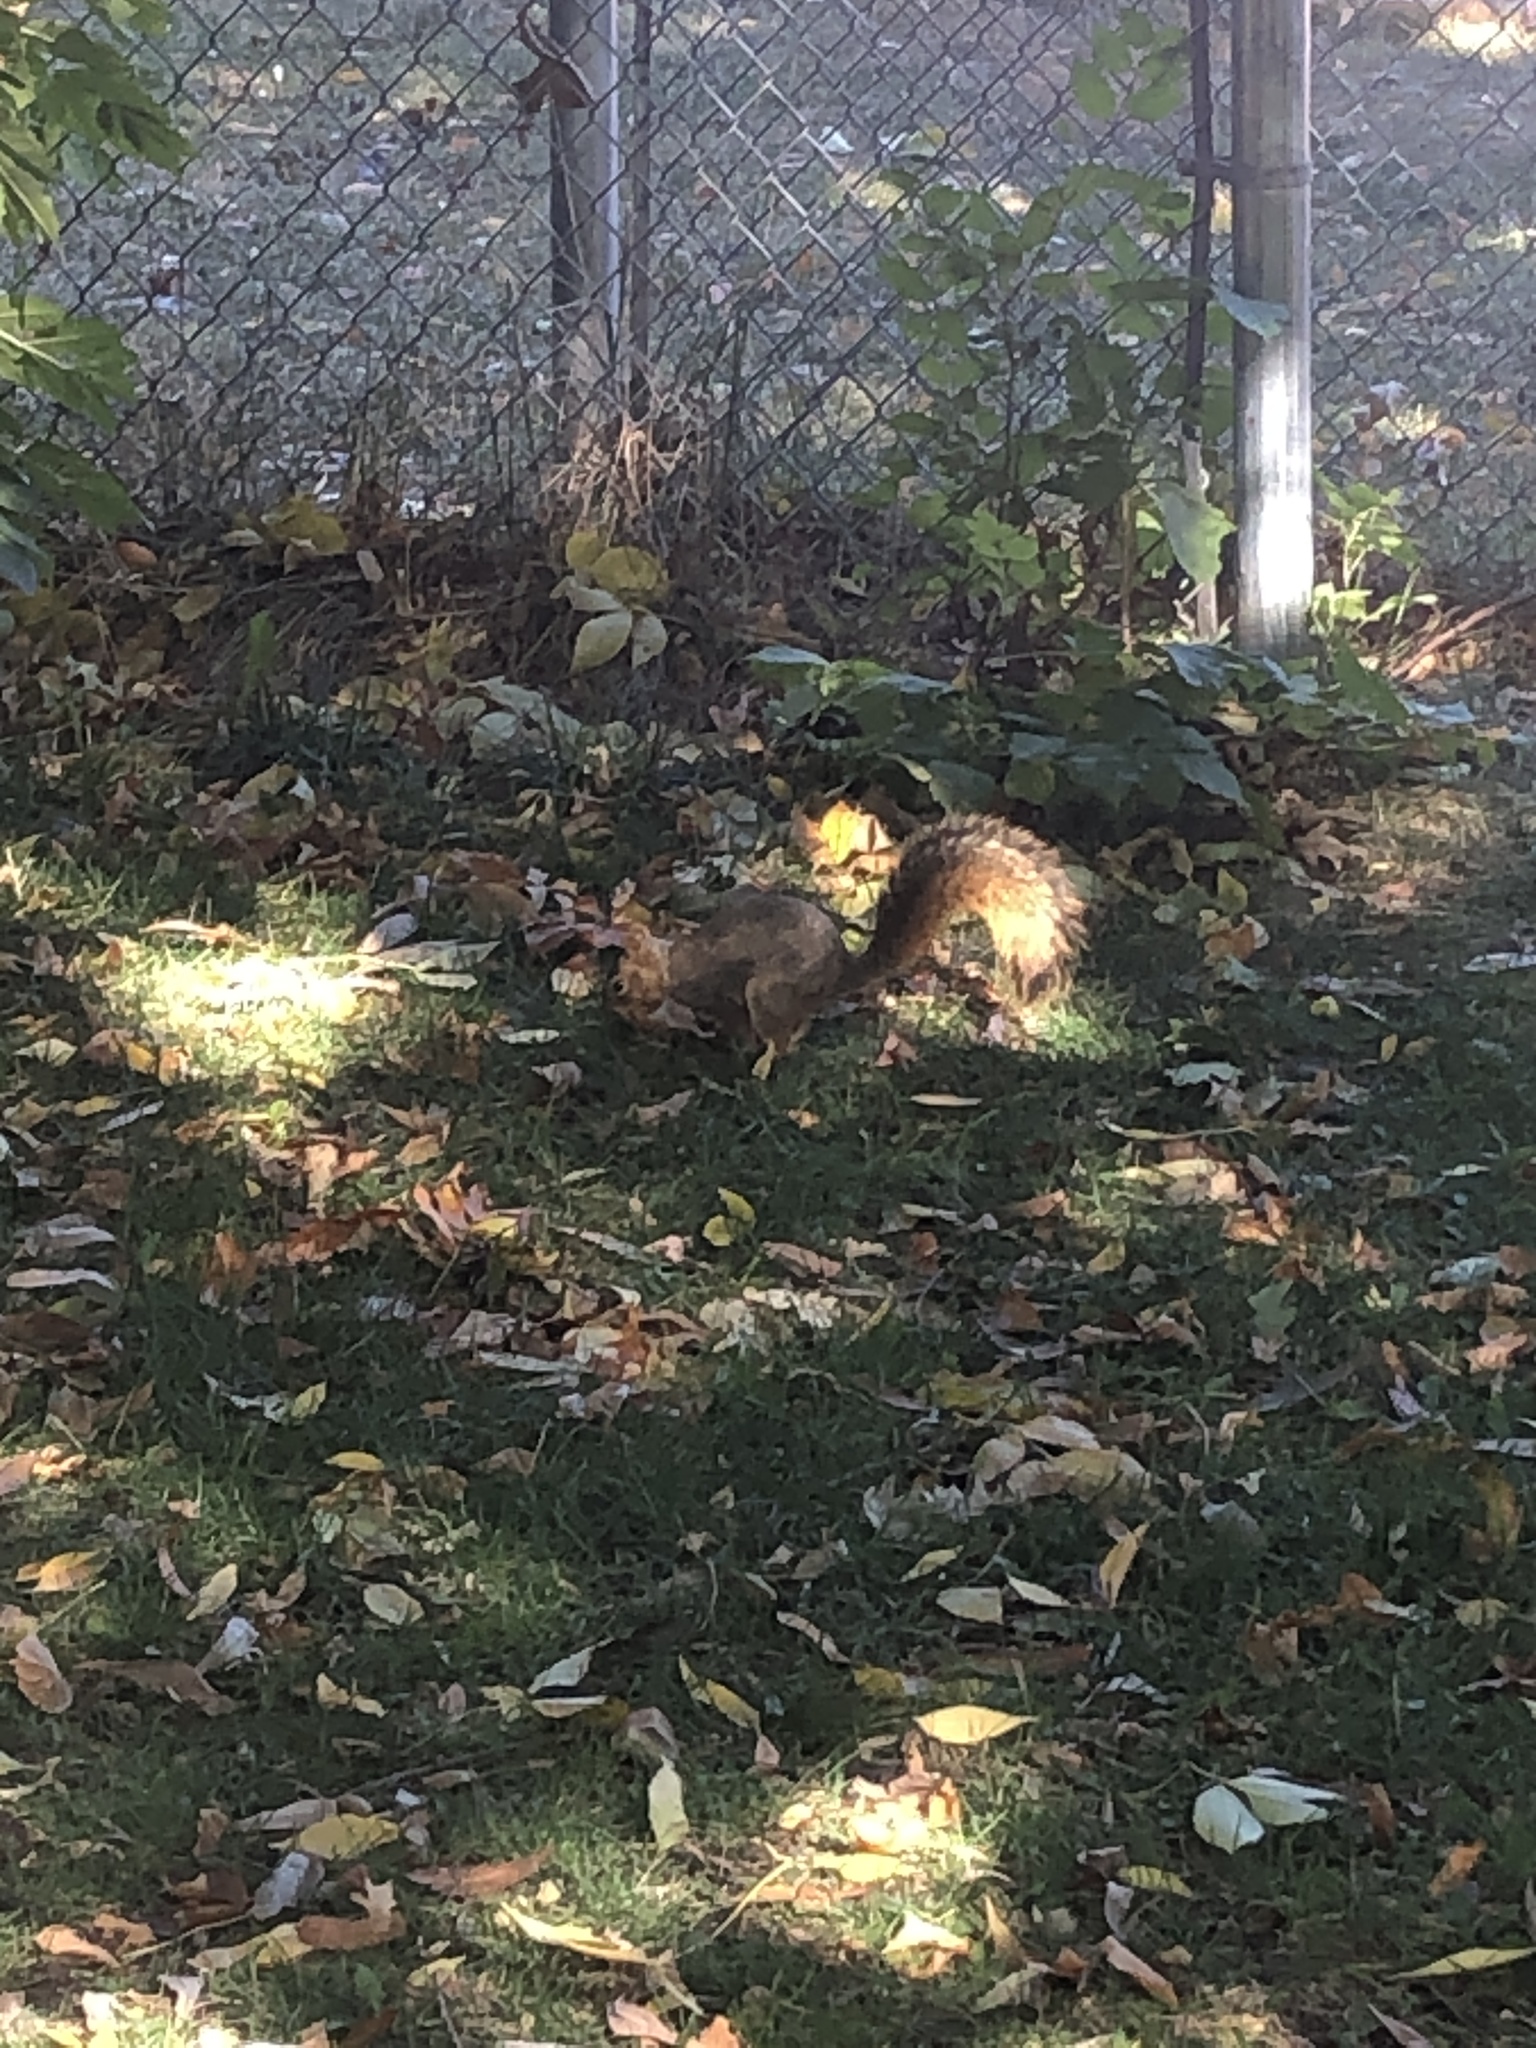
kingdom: Animalia
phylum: Chordata
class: Mammalia
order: Rodentia
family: Sciuridae
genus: Sciurus
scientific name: Sciurus niger
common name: Fox squirrel
